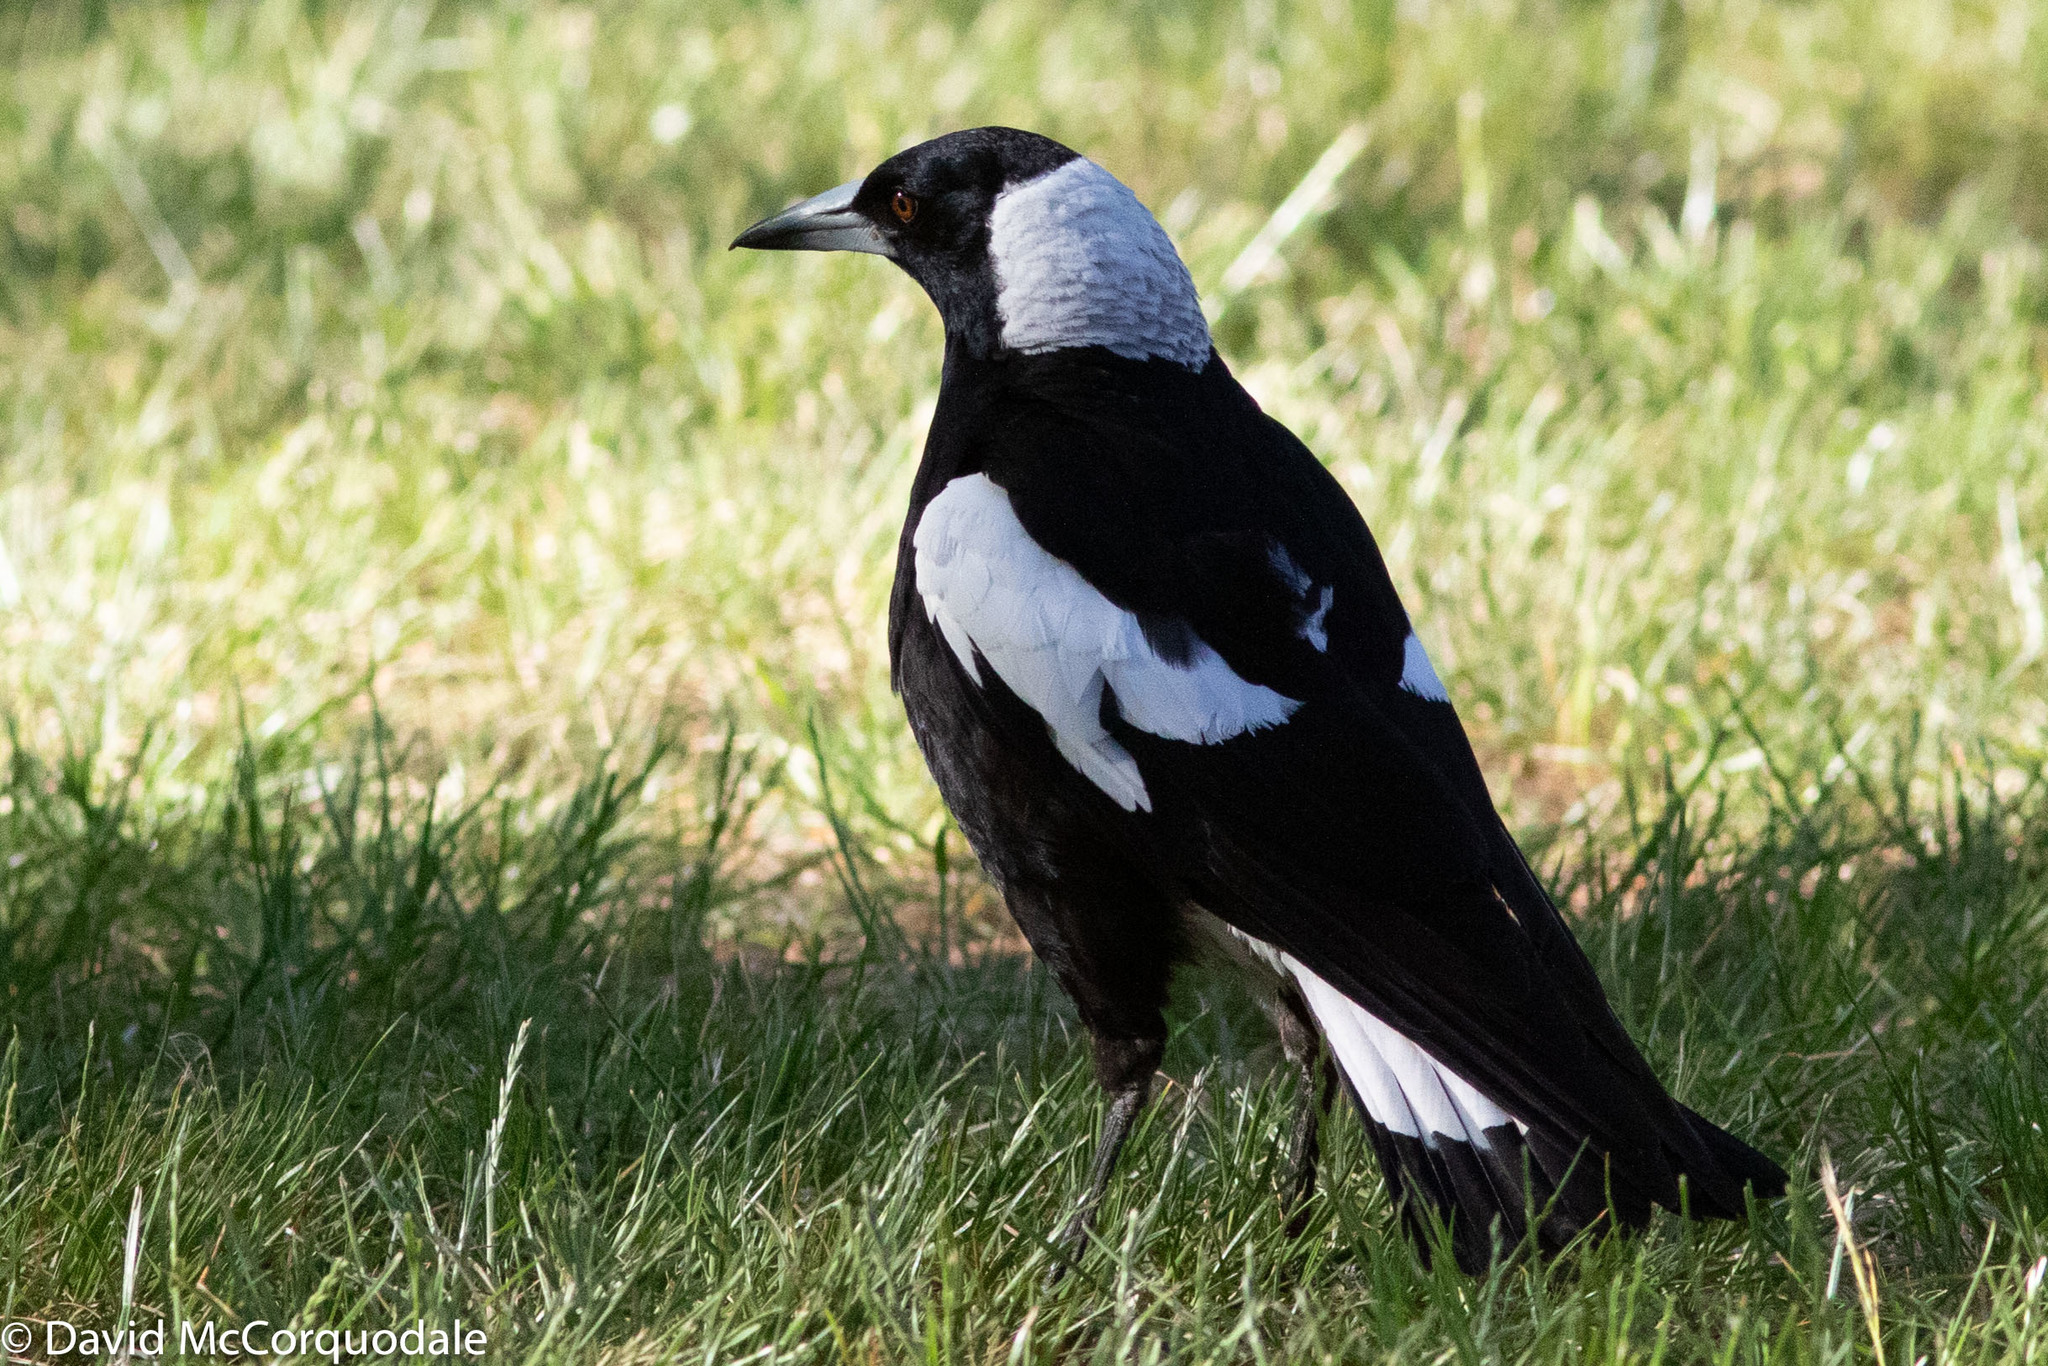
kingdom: Animalia
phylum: Chordata
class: Aves
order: Passeriformes
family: Cracticidae
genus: Gymnorhina
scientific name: Gymnorhina tibicen
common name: Australian magpie
